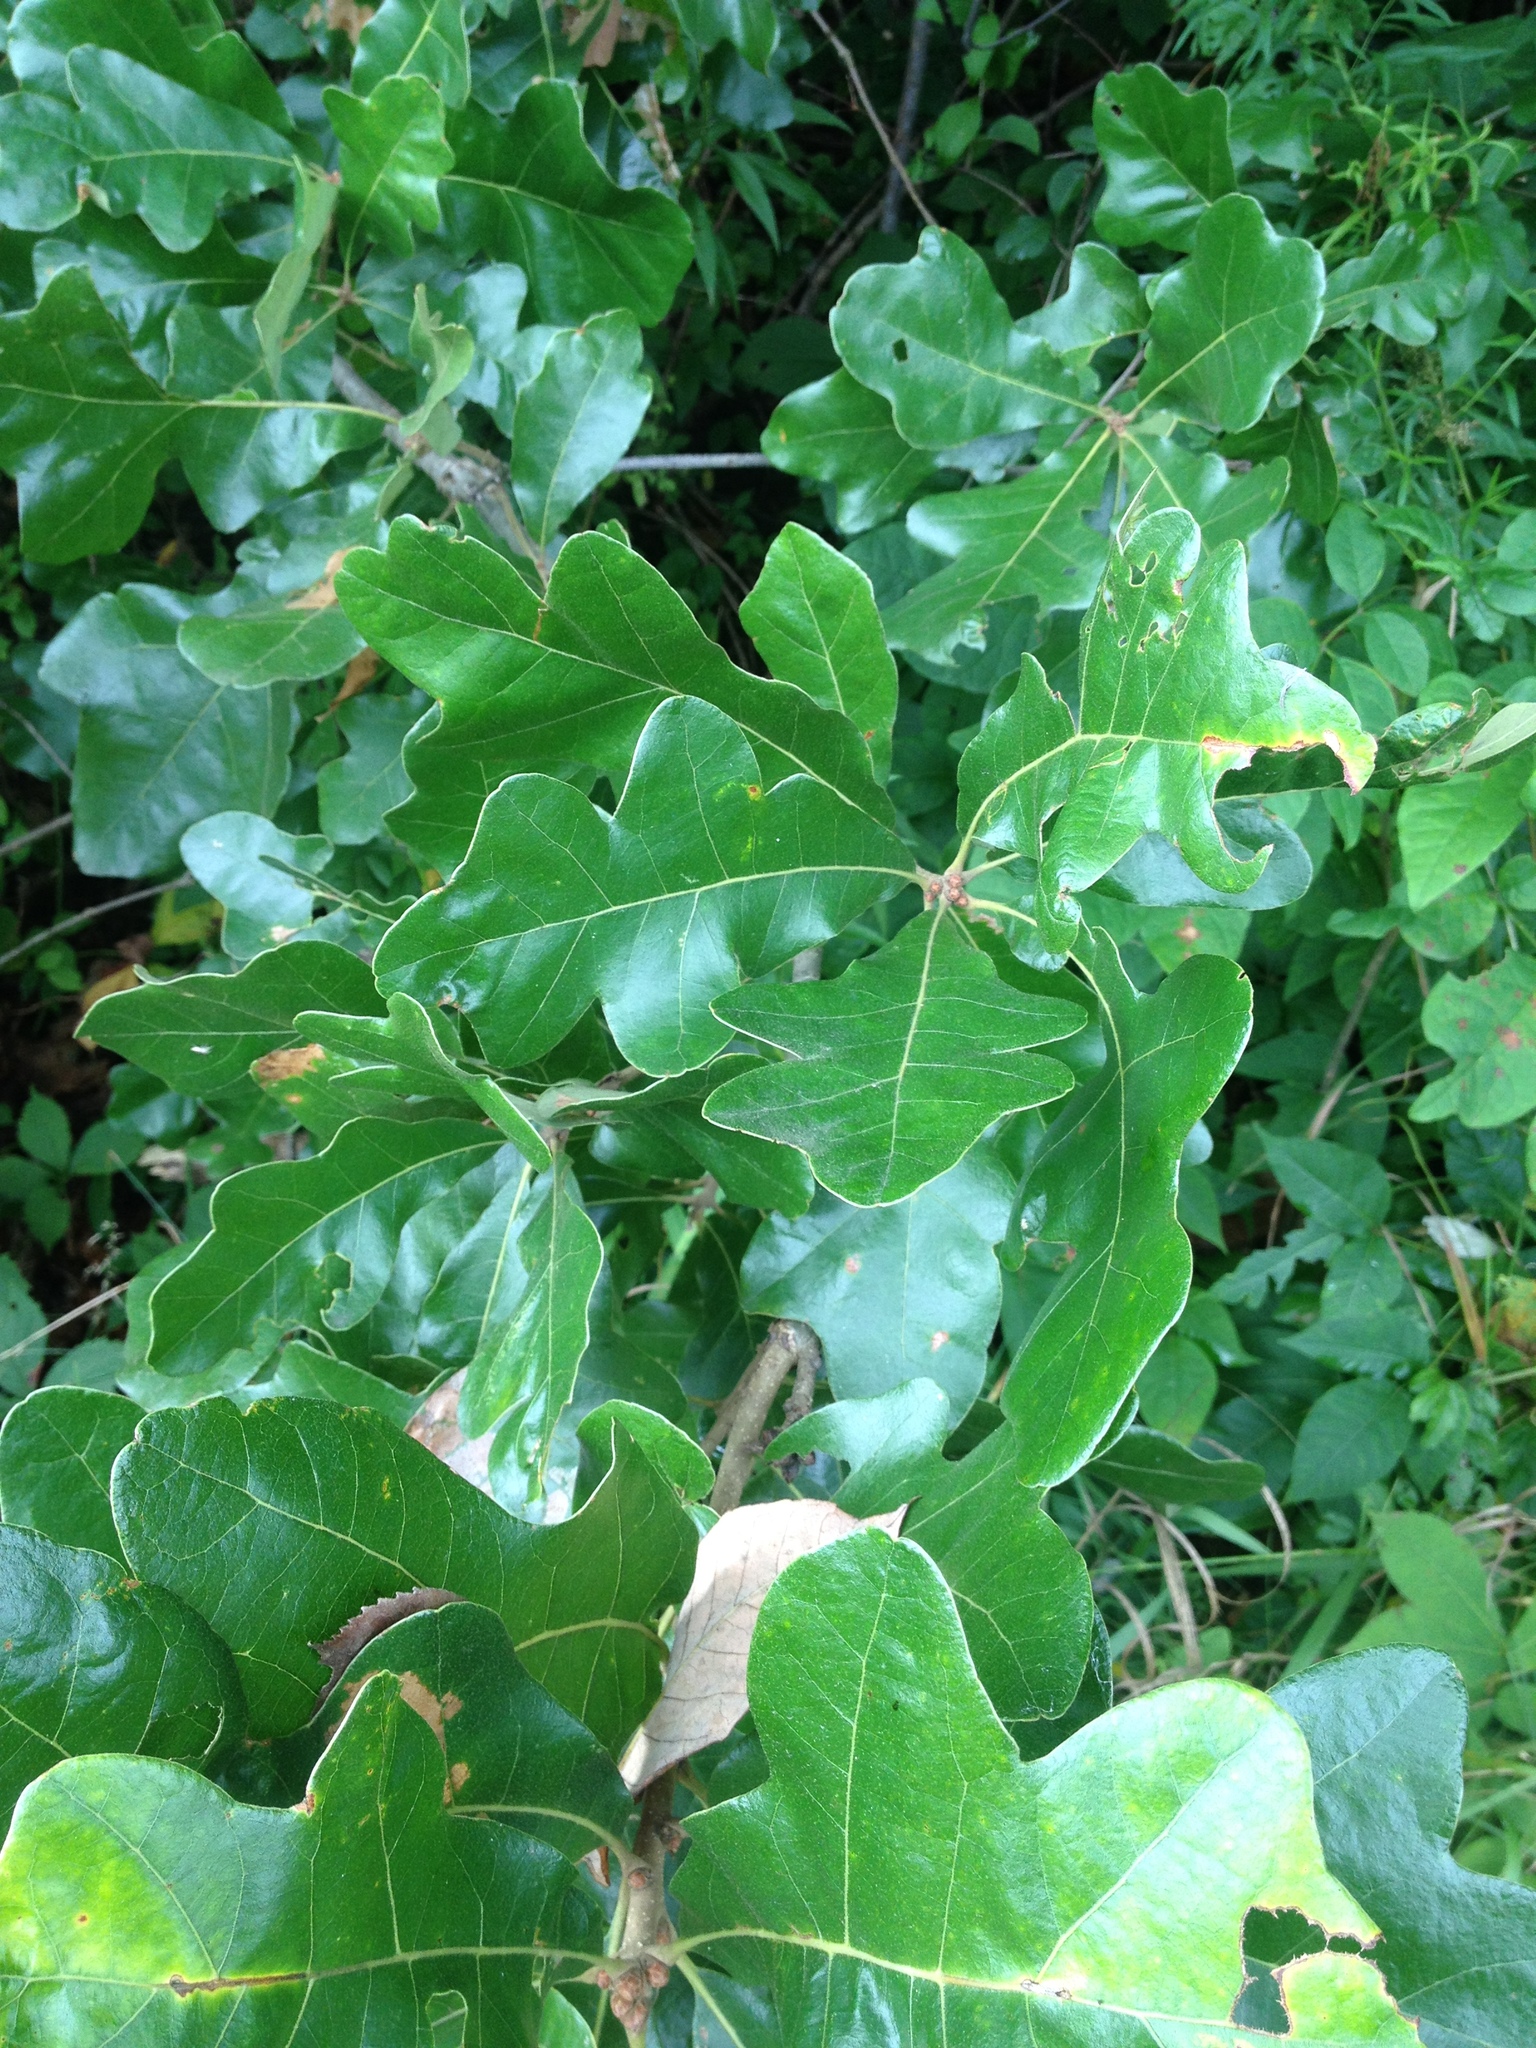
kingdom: Plantae
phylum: Tracheophyta
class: Magnoliopsida
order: Fagales
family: Fagaceae
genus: Quercus
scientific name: Quercus stellata
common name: Post oak
